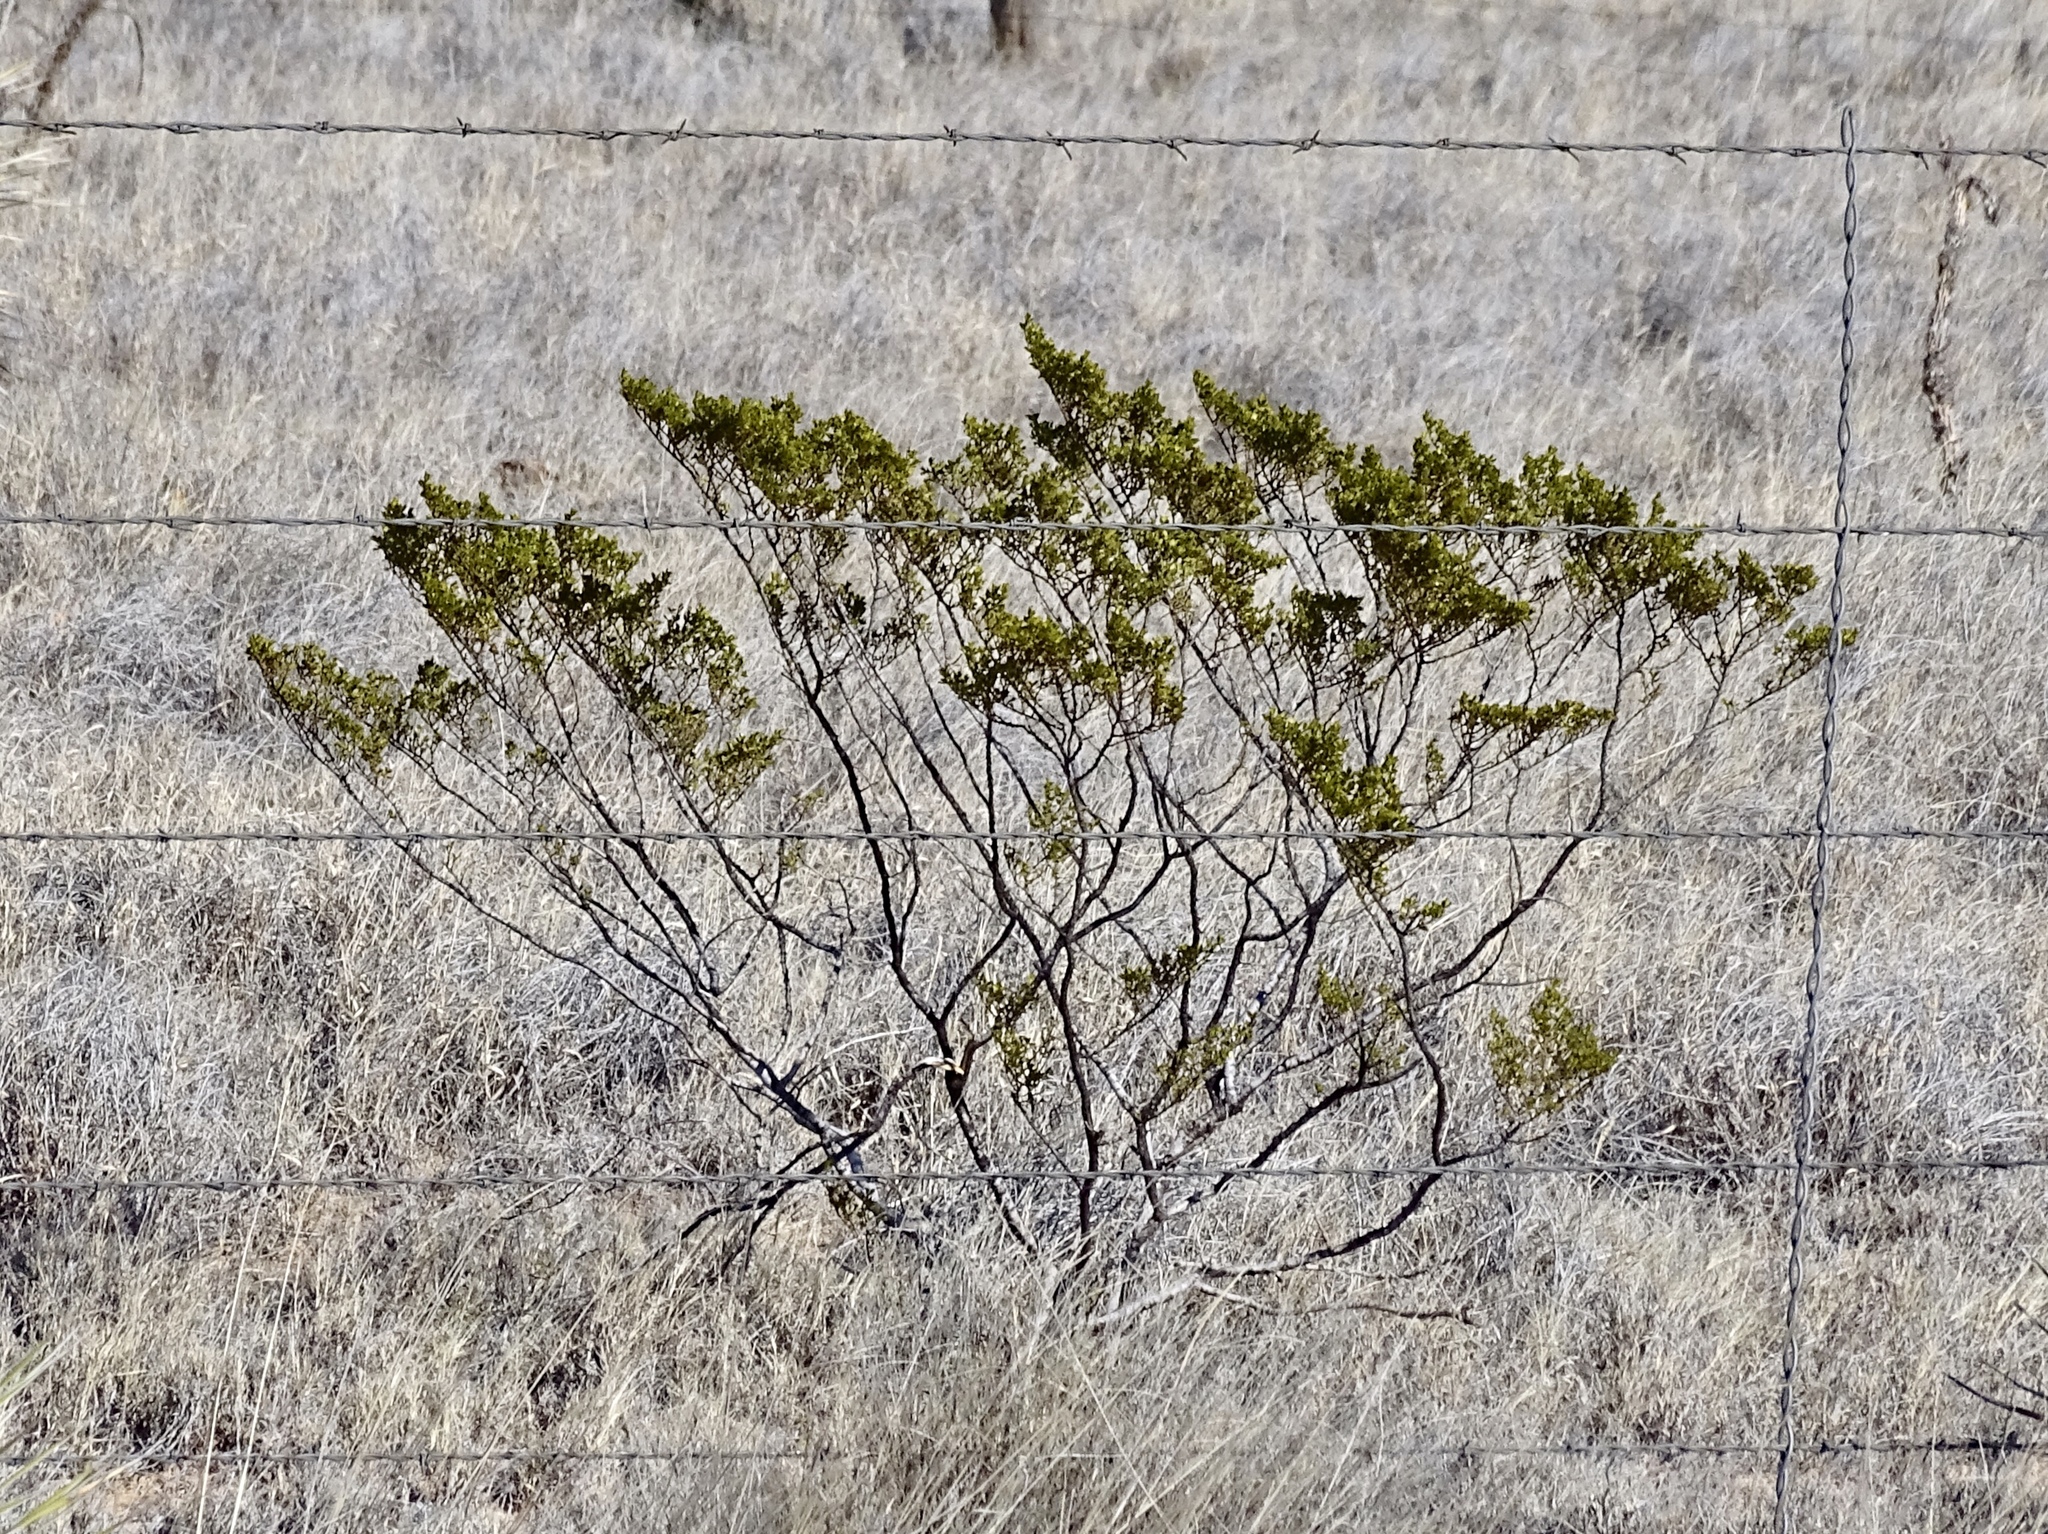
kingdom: Plantae
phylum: Tracheophyta
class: Magnoliopsida
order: Zygophyllales
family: Zygophyllaceae
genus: Larrea
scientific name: Larrea tridentata
